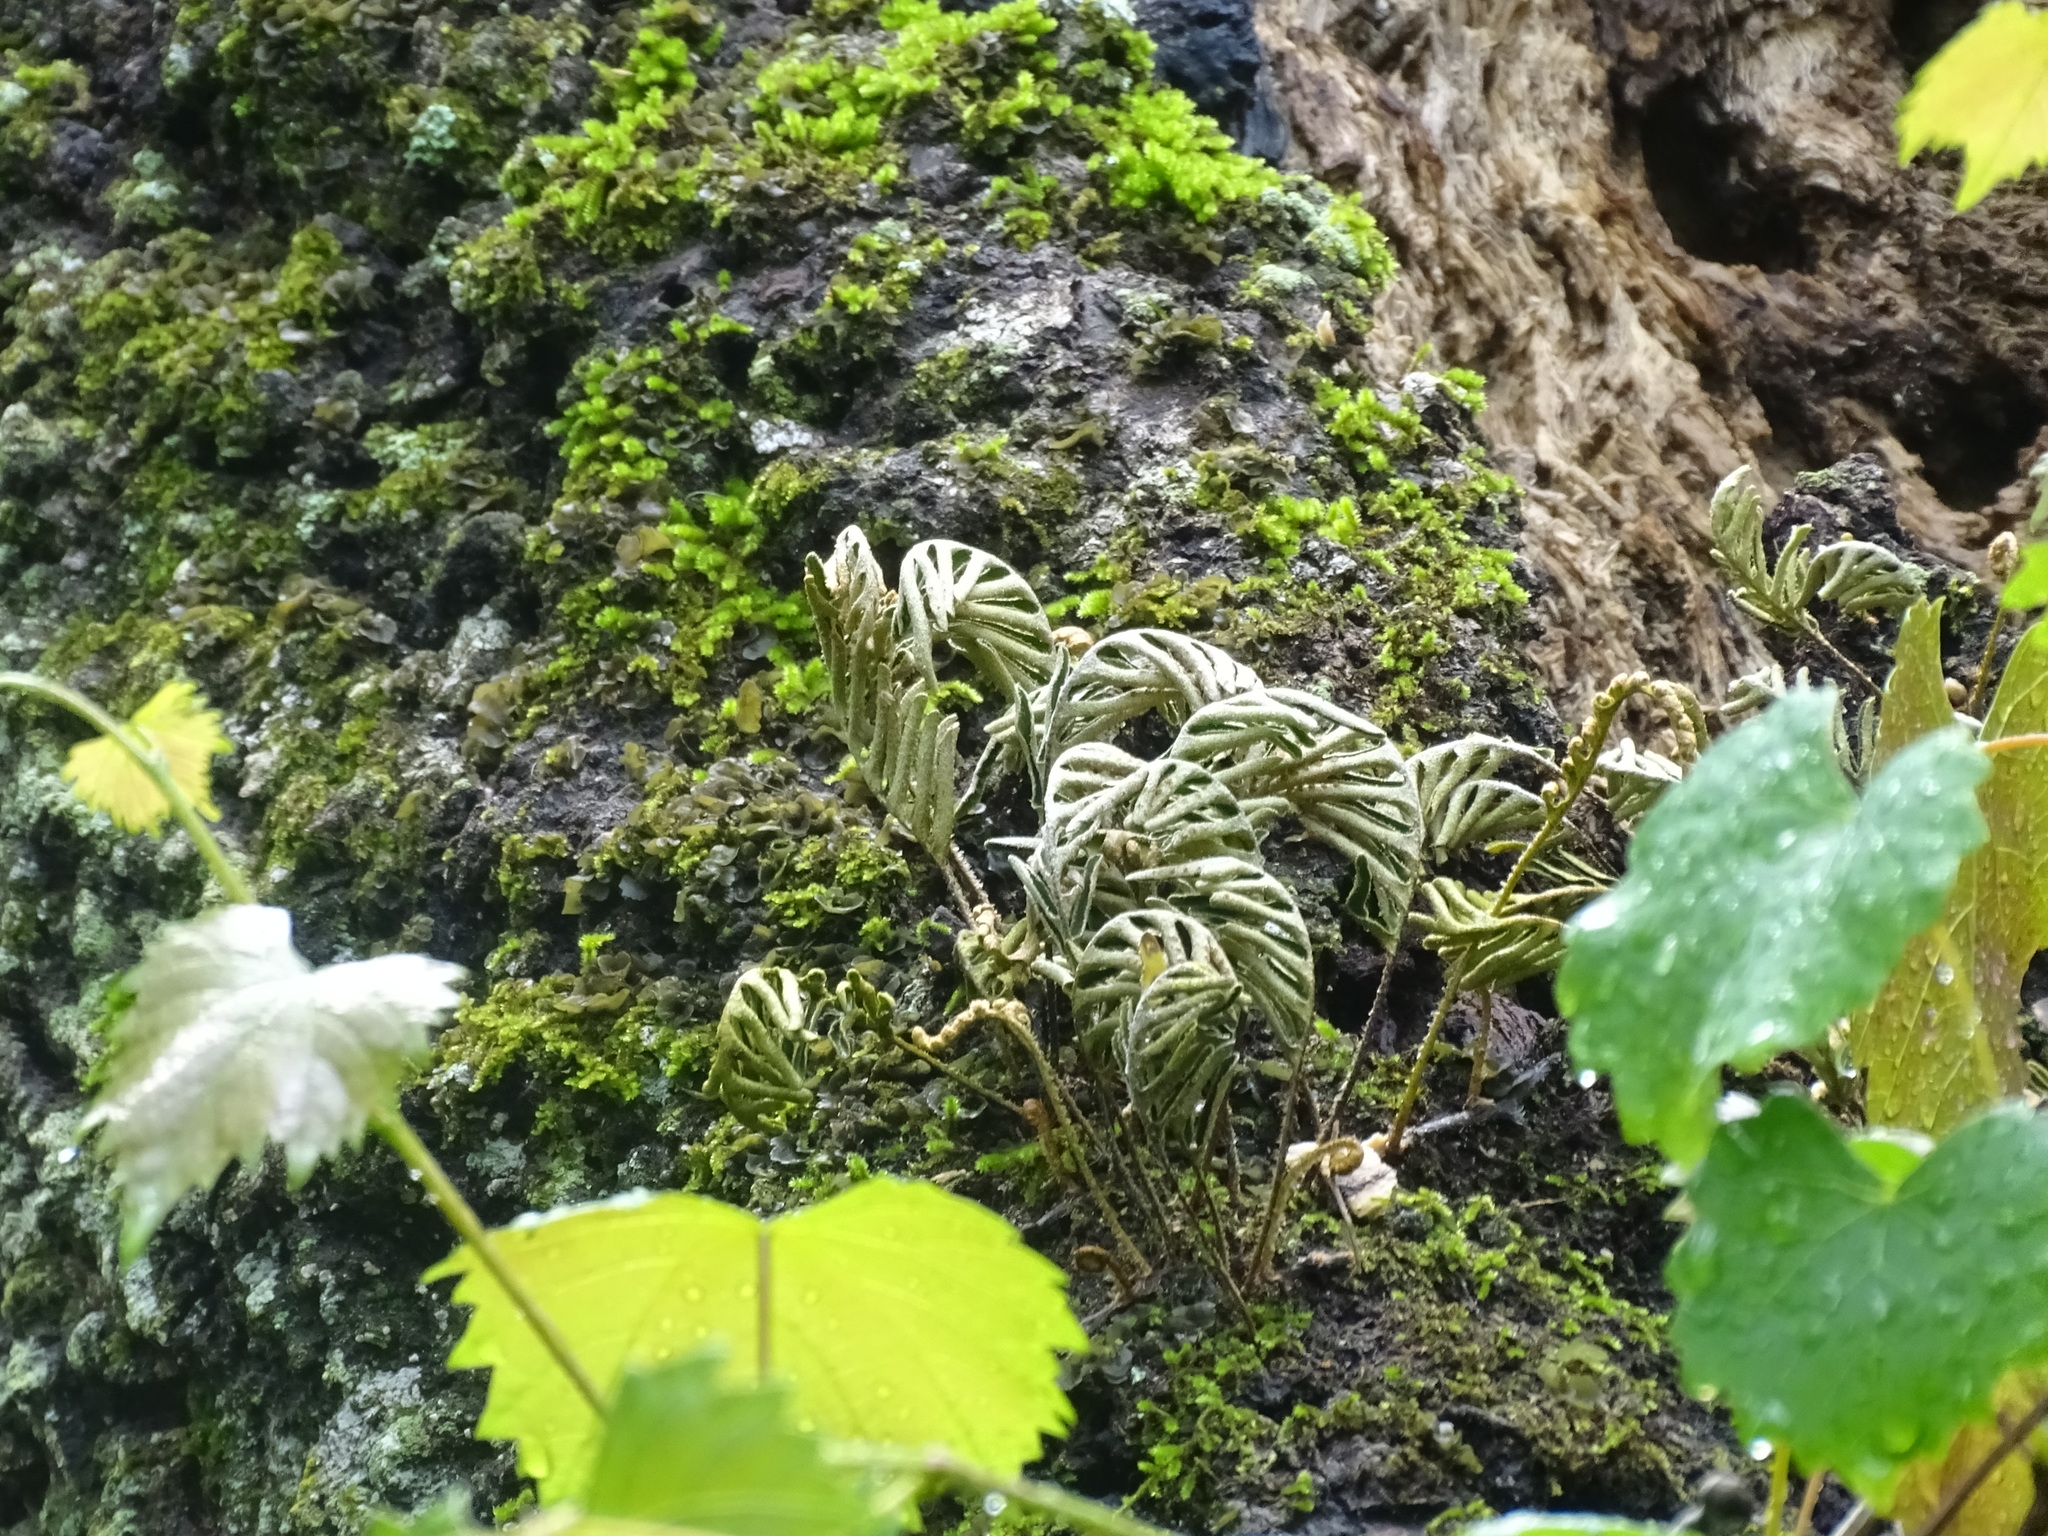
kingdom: Plantae
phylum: Tracheophyta
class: Polypodiopsida
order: Polypodiales
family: Polypodiaceae
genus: Pleopeltis
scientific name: Pleopeltis michauxiana
